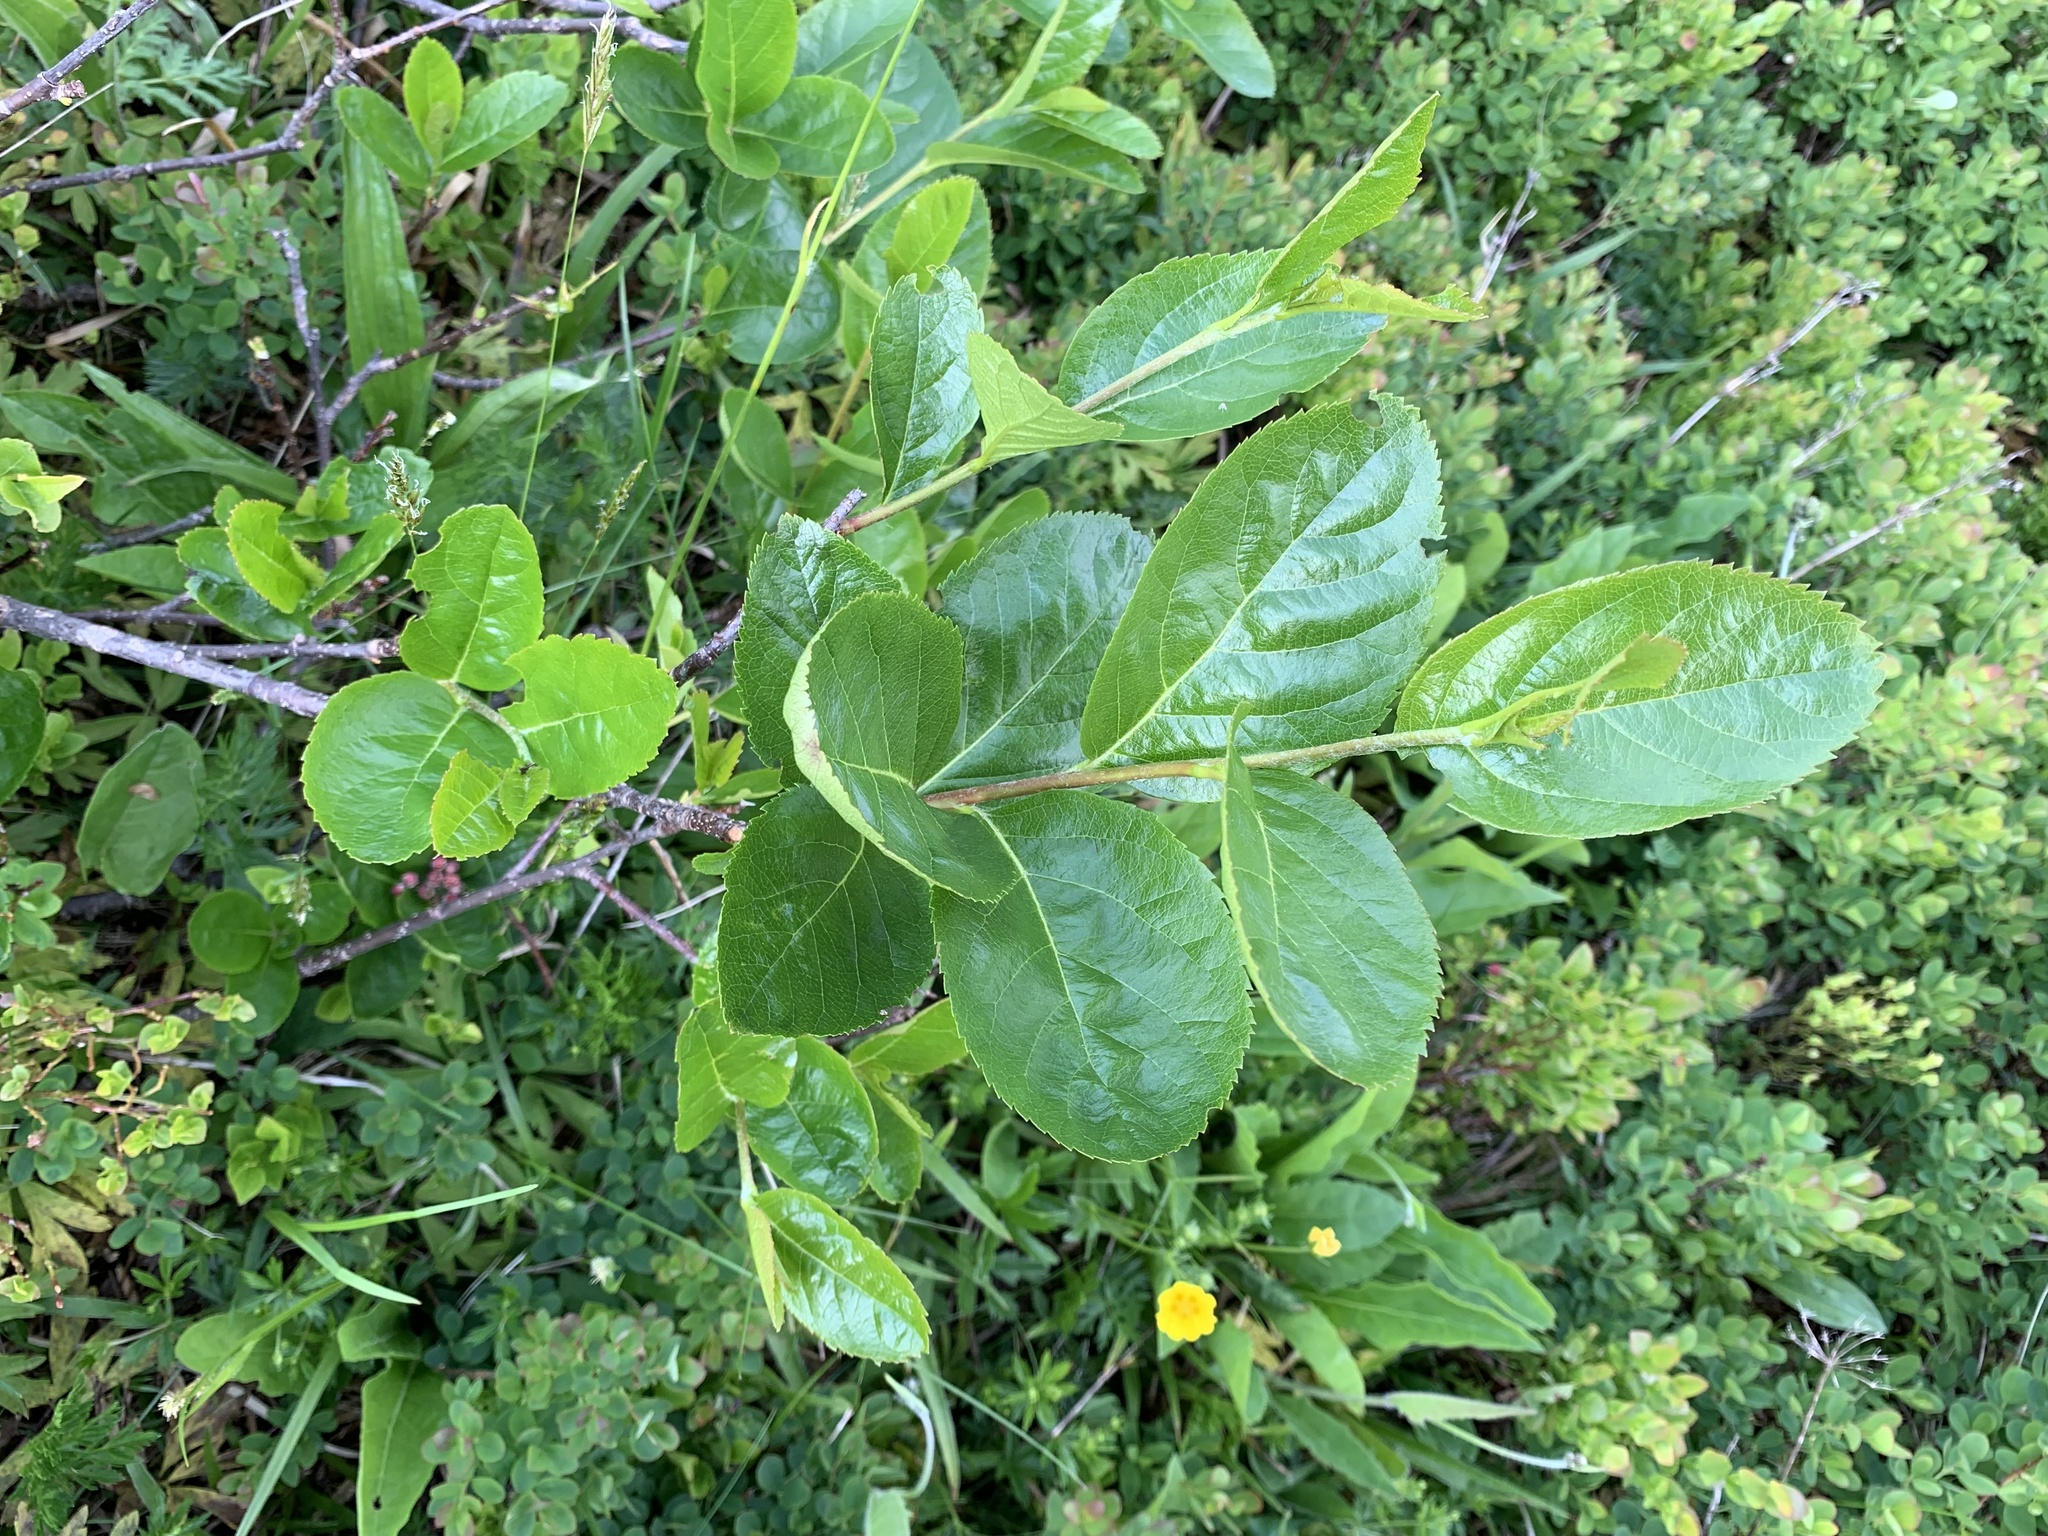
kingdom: Plantae
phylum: Tracheophyta
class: Magnoliopsida
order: Rosales
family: Rosaceae
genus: Chamaemespilus
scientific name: Chamaemespilus alpina
